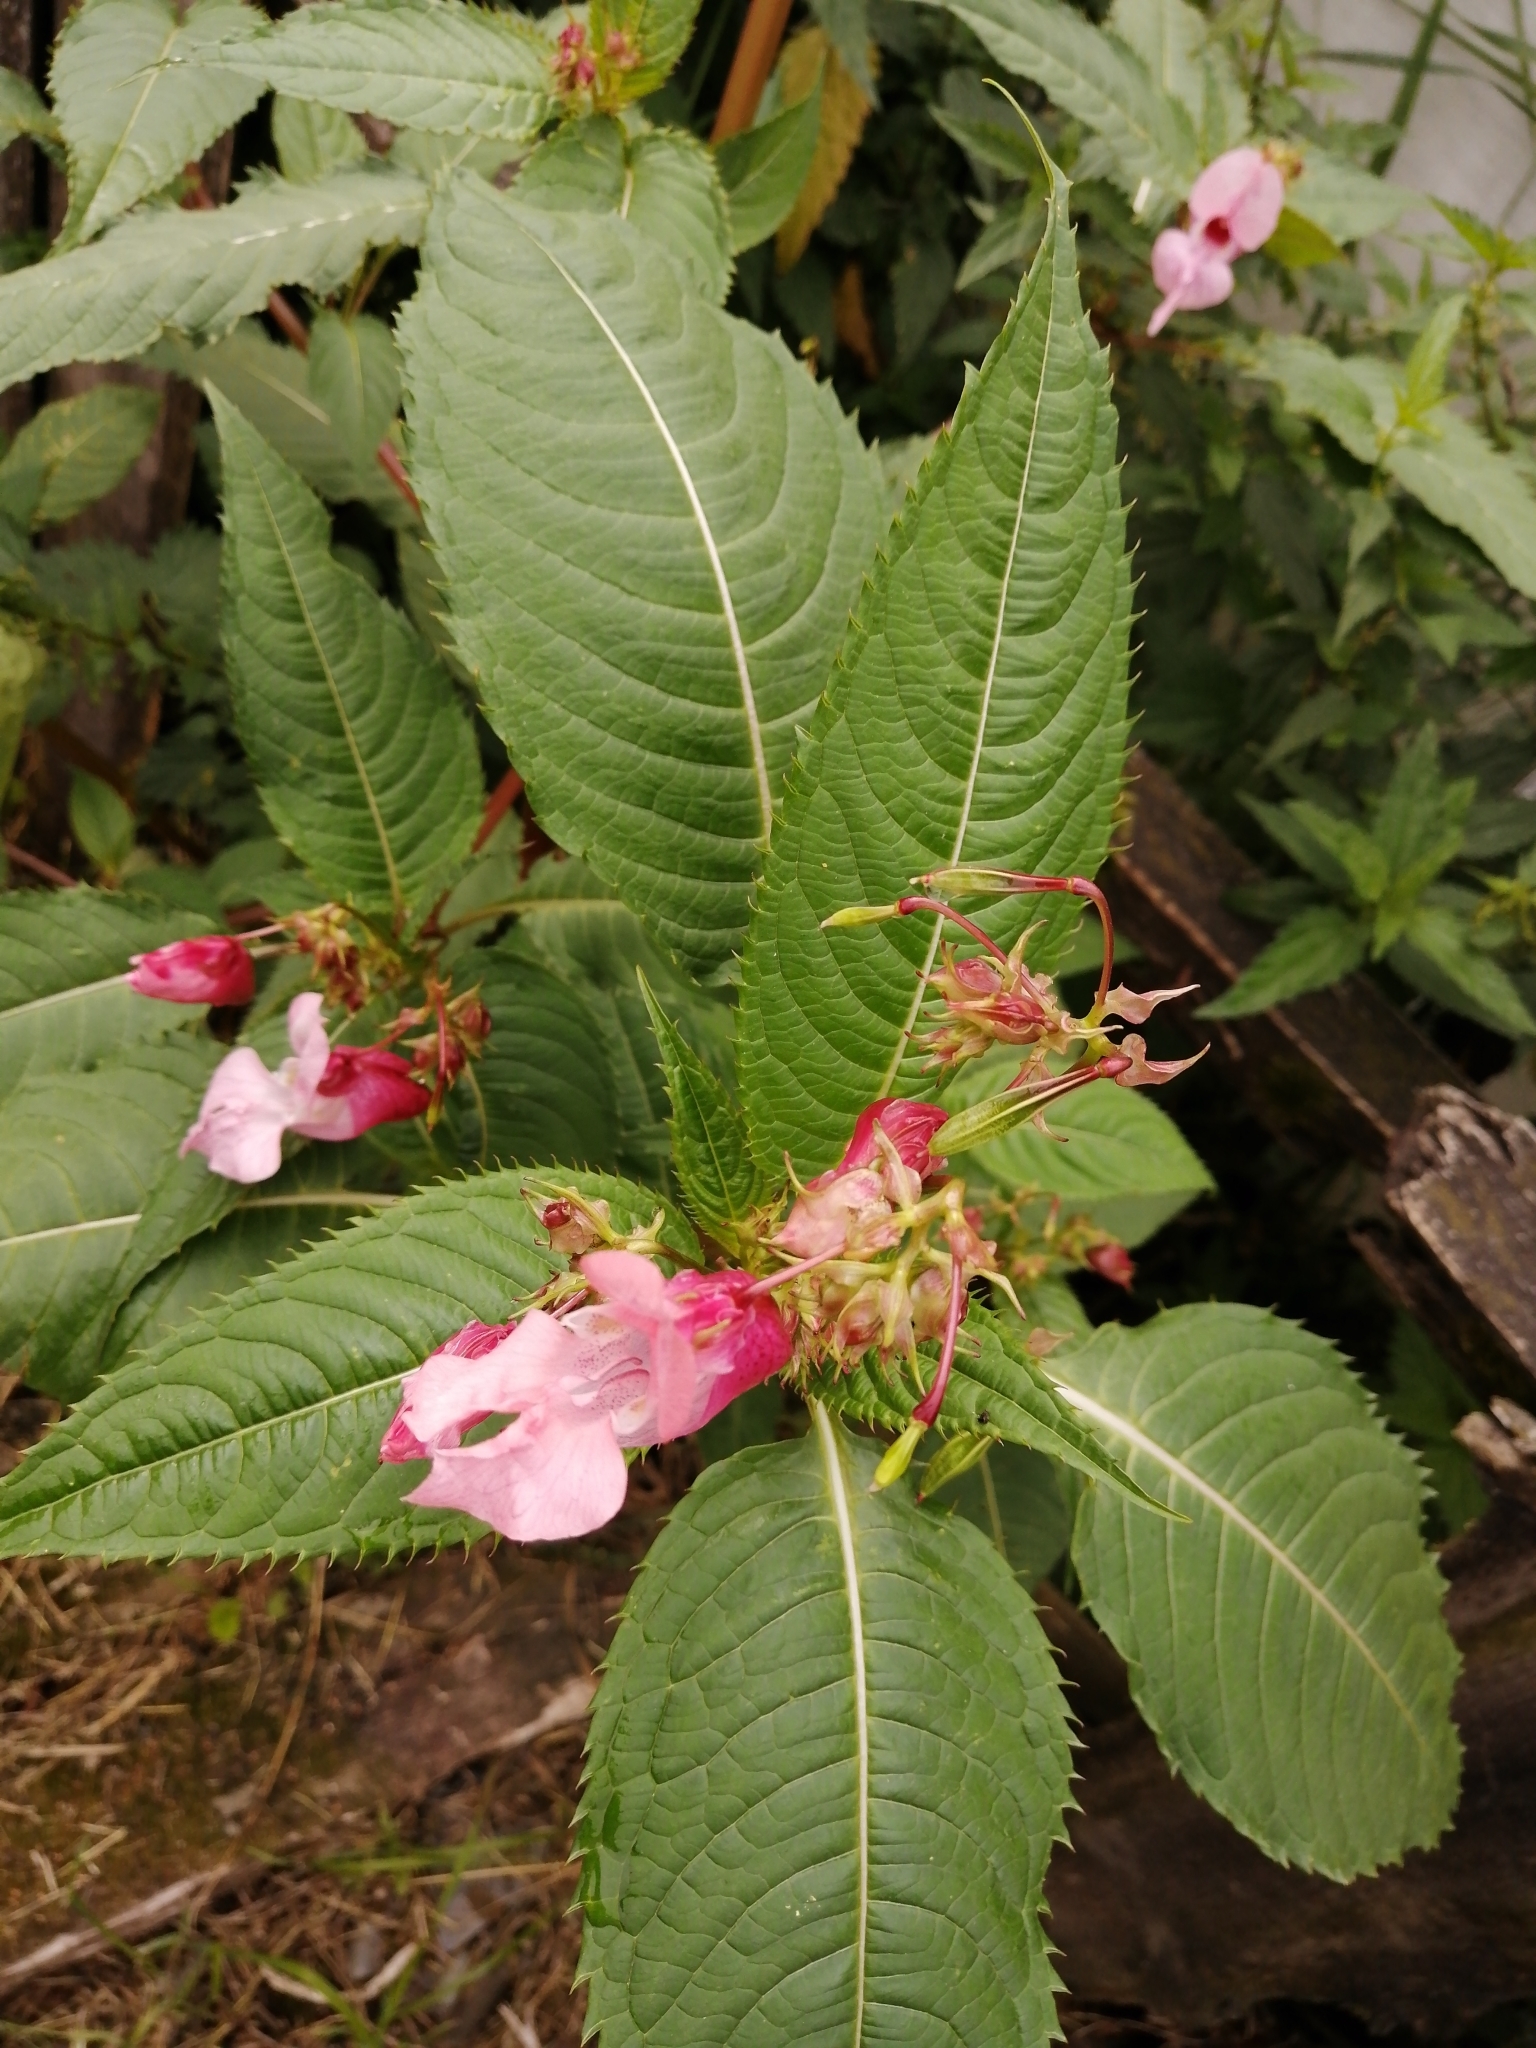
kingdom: Plantae
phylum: Tracheophyta
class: Magnoliopsida
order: Ericales
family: Balsaminaceae
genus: Impatiens
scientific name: Impatiens glandulifera
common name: Himalayan balsam
